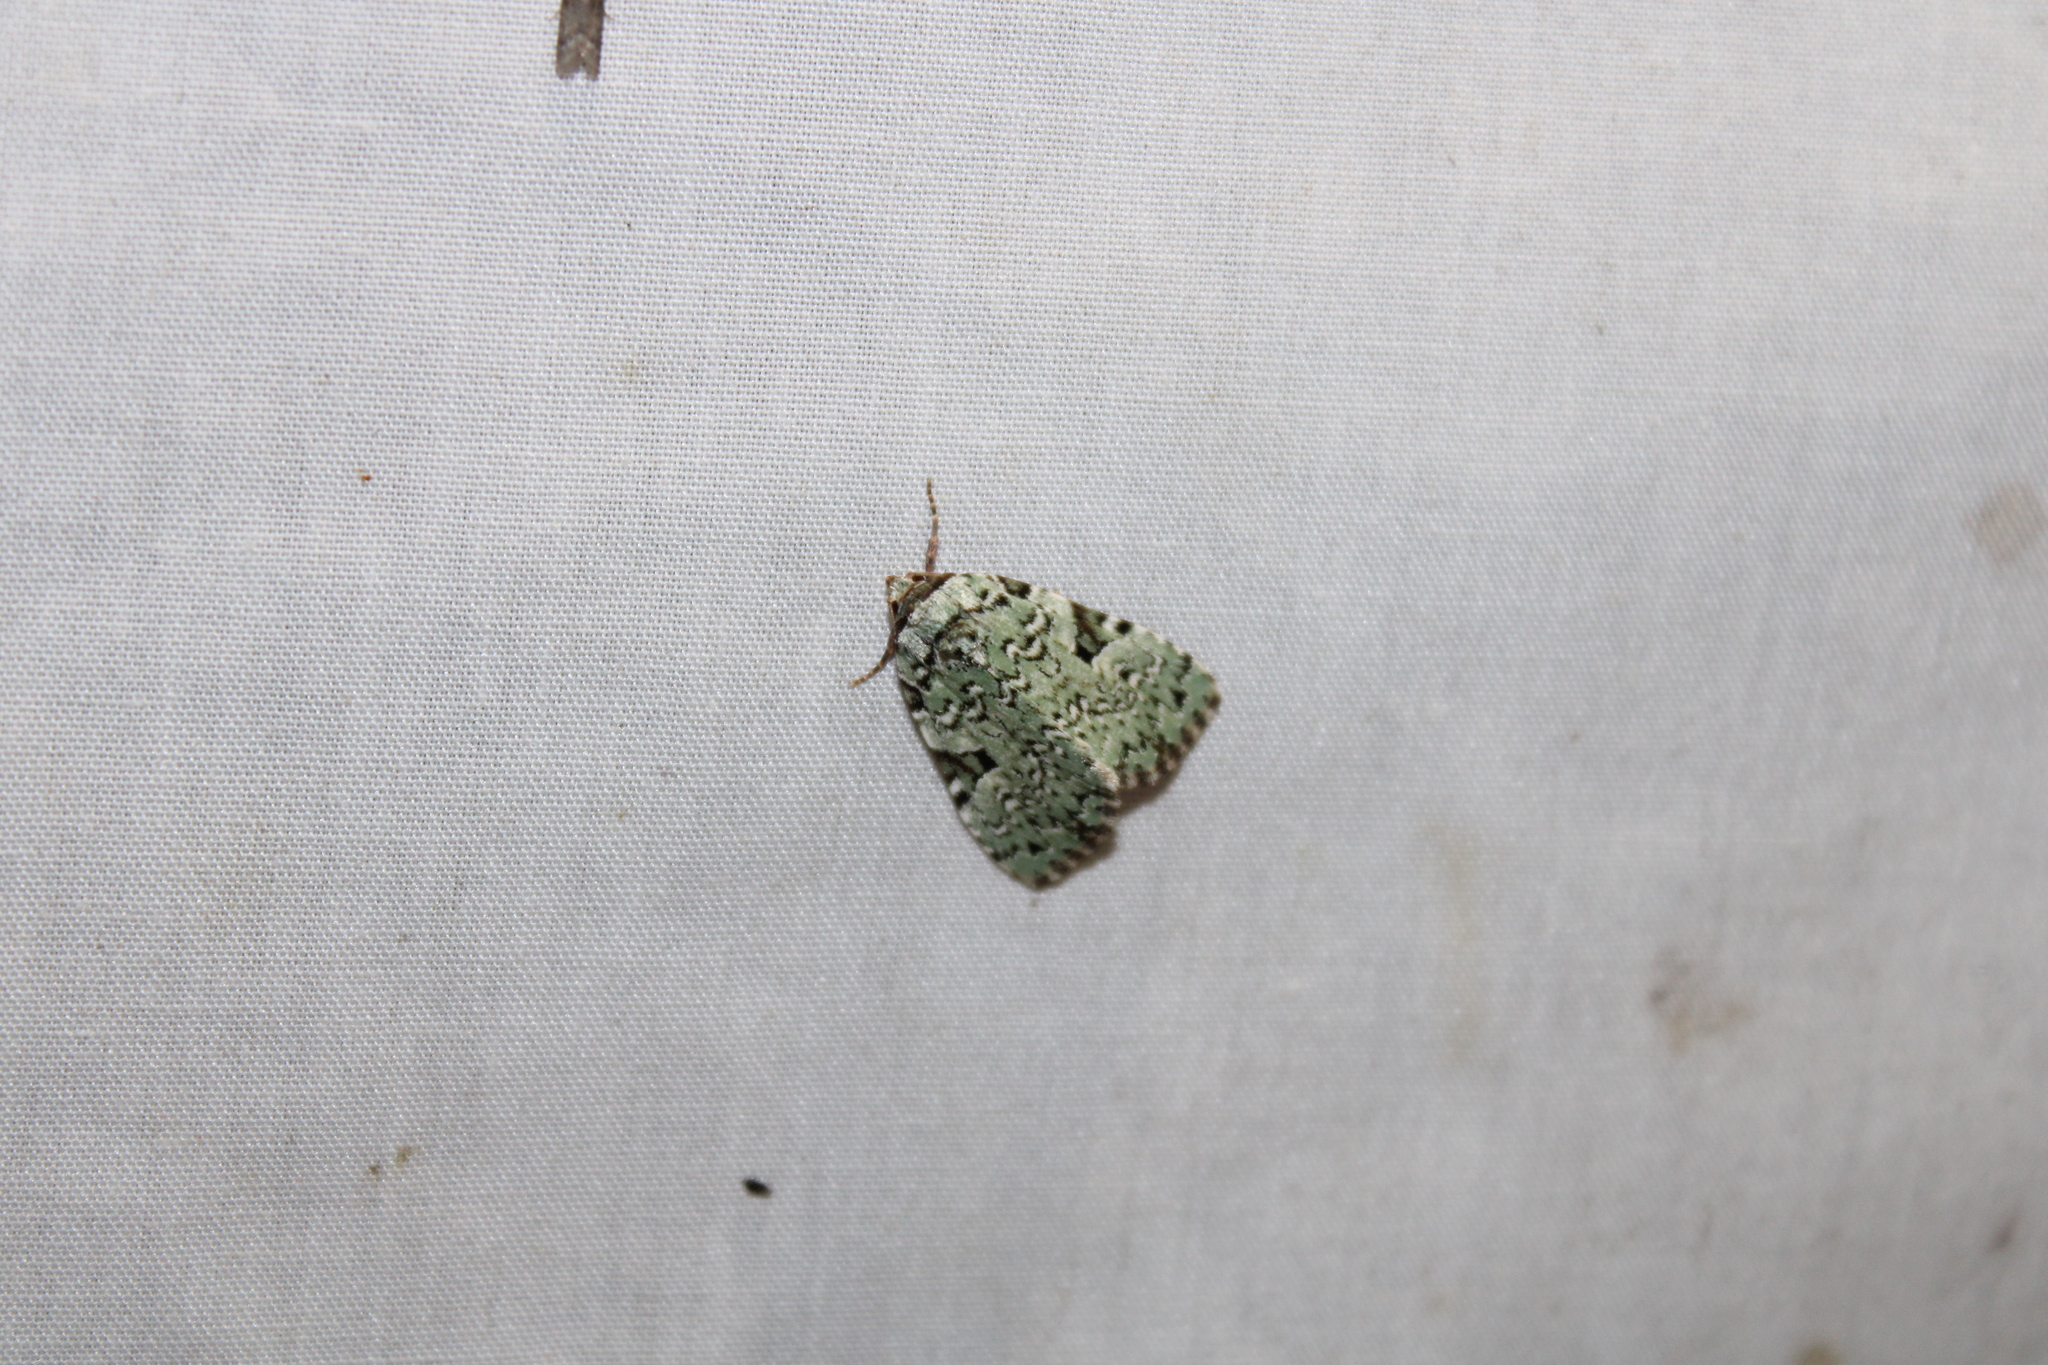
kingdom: Animalia
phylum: Arthropoda
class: Insecta
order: Lepidoptera
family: Noctuidae
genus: Leuconycta
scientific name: Leuconycta diphteroides
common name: Green leuconycta moth
